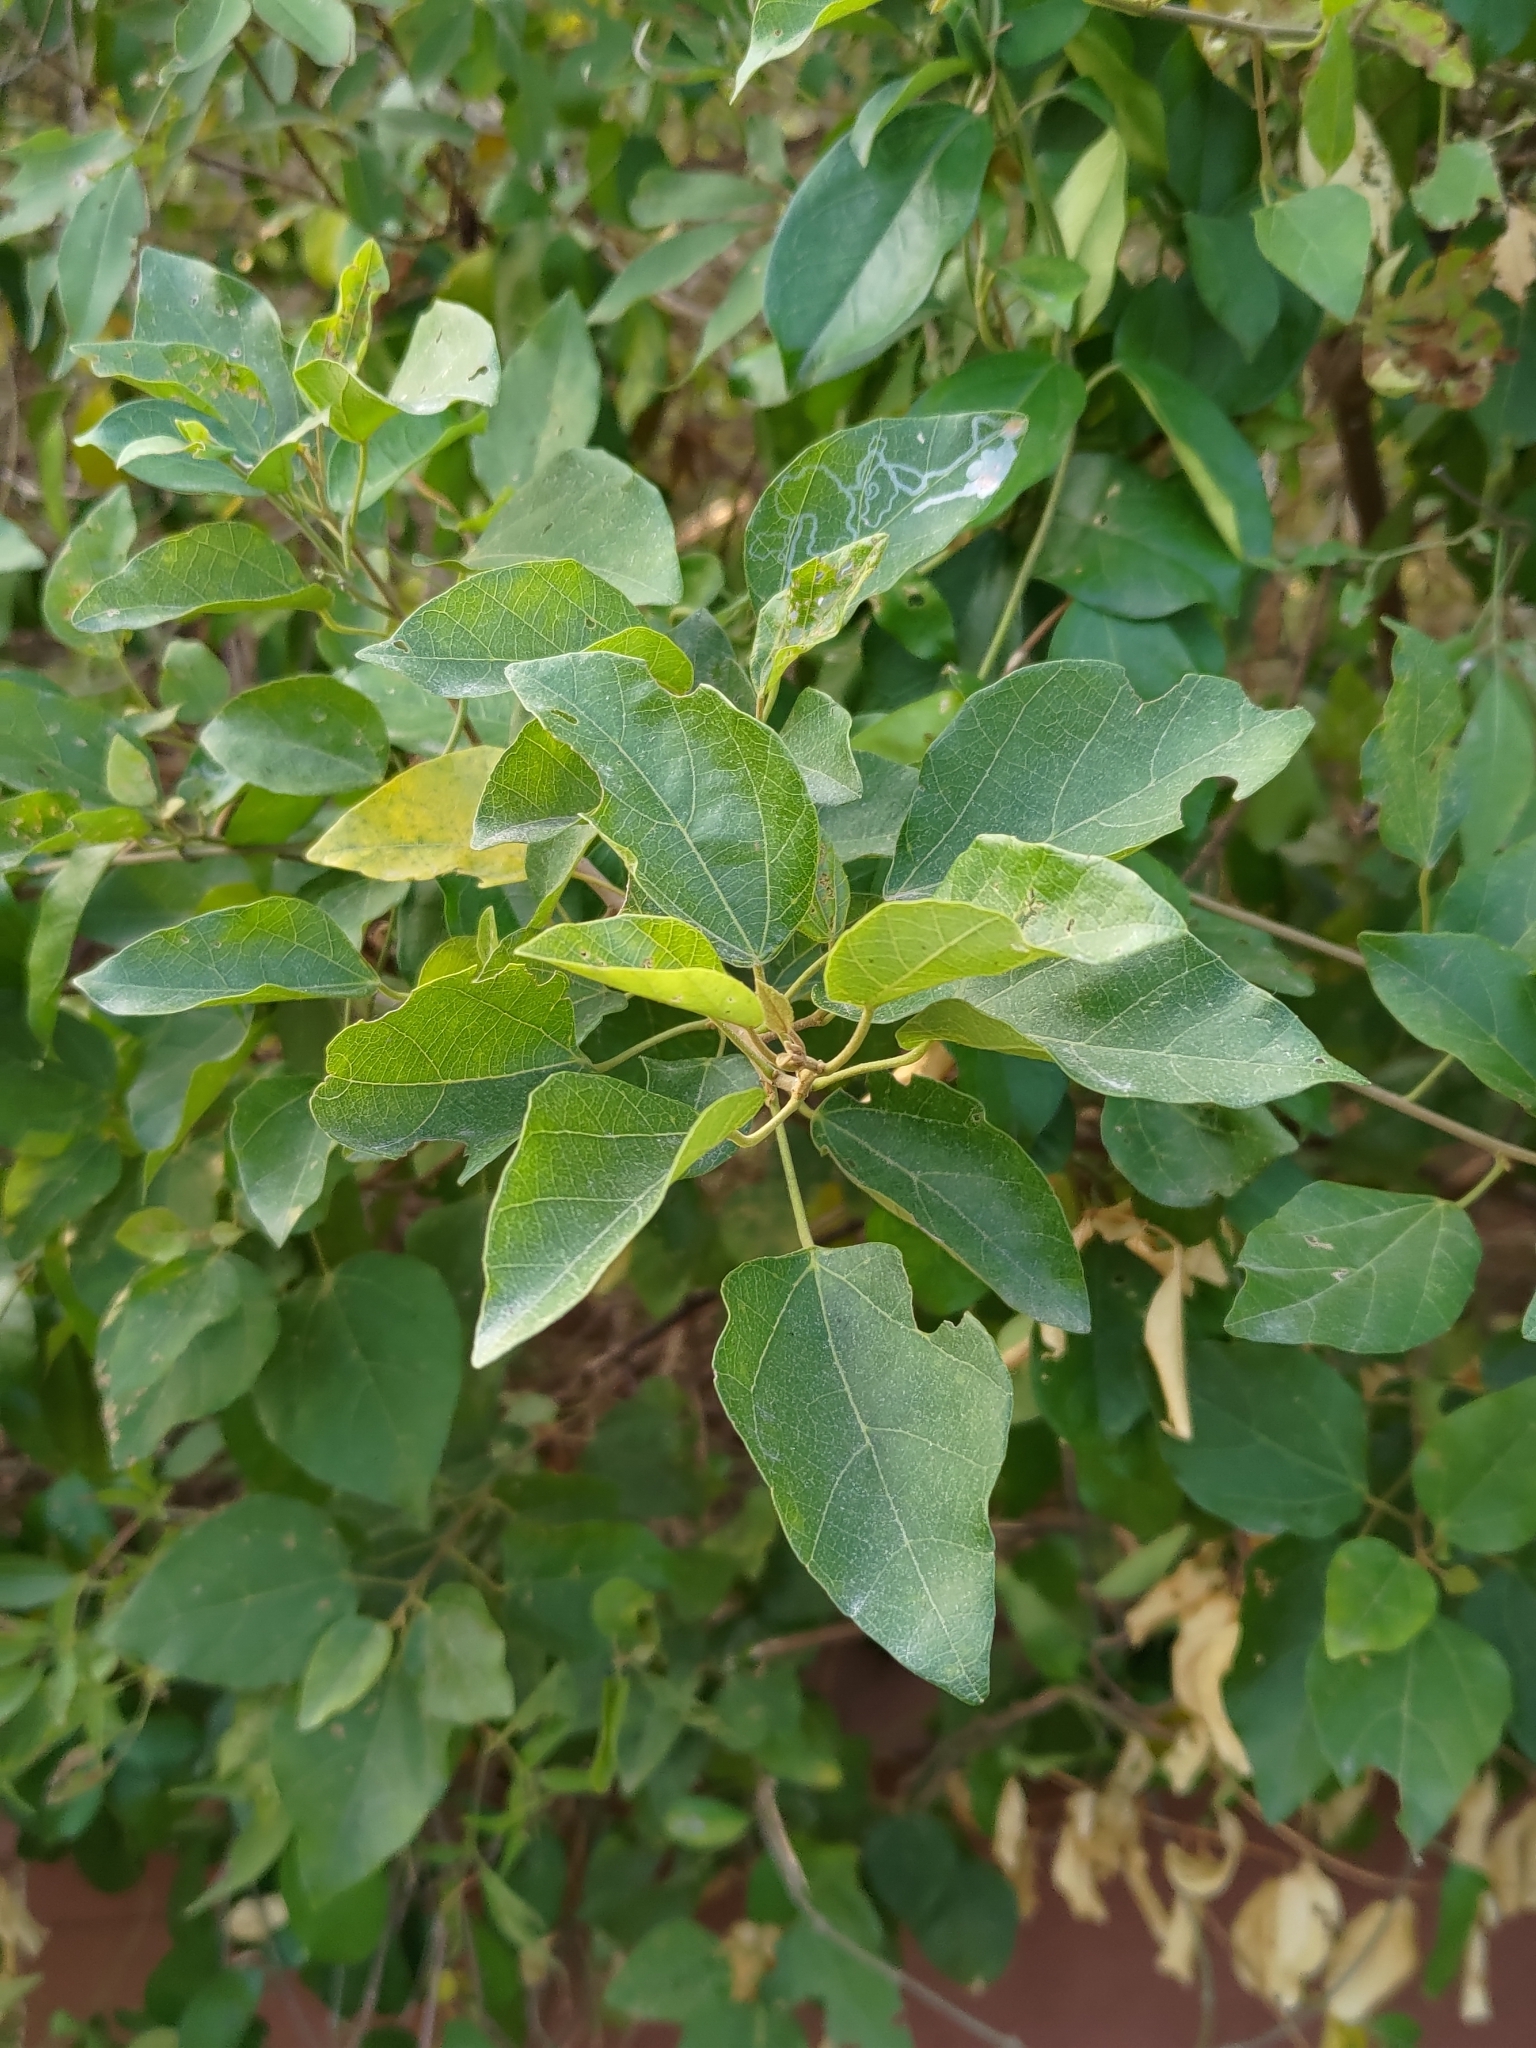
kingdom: Plantae
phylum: Tracheophyta
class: Magnoliopsida
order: Malpighiales
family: Euphorbiaceae
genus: Mallotus
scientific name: Mallotus repandus
